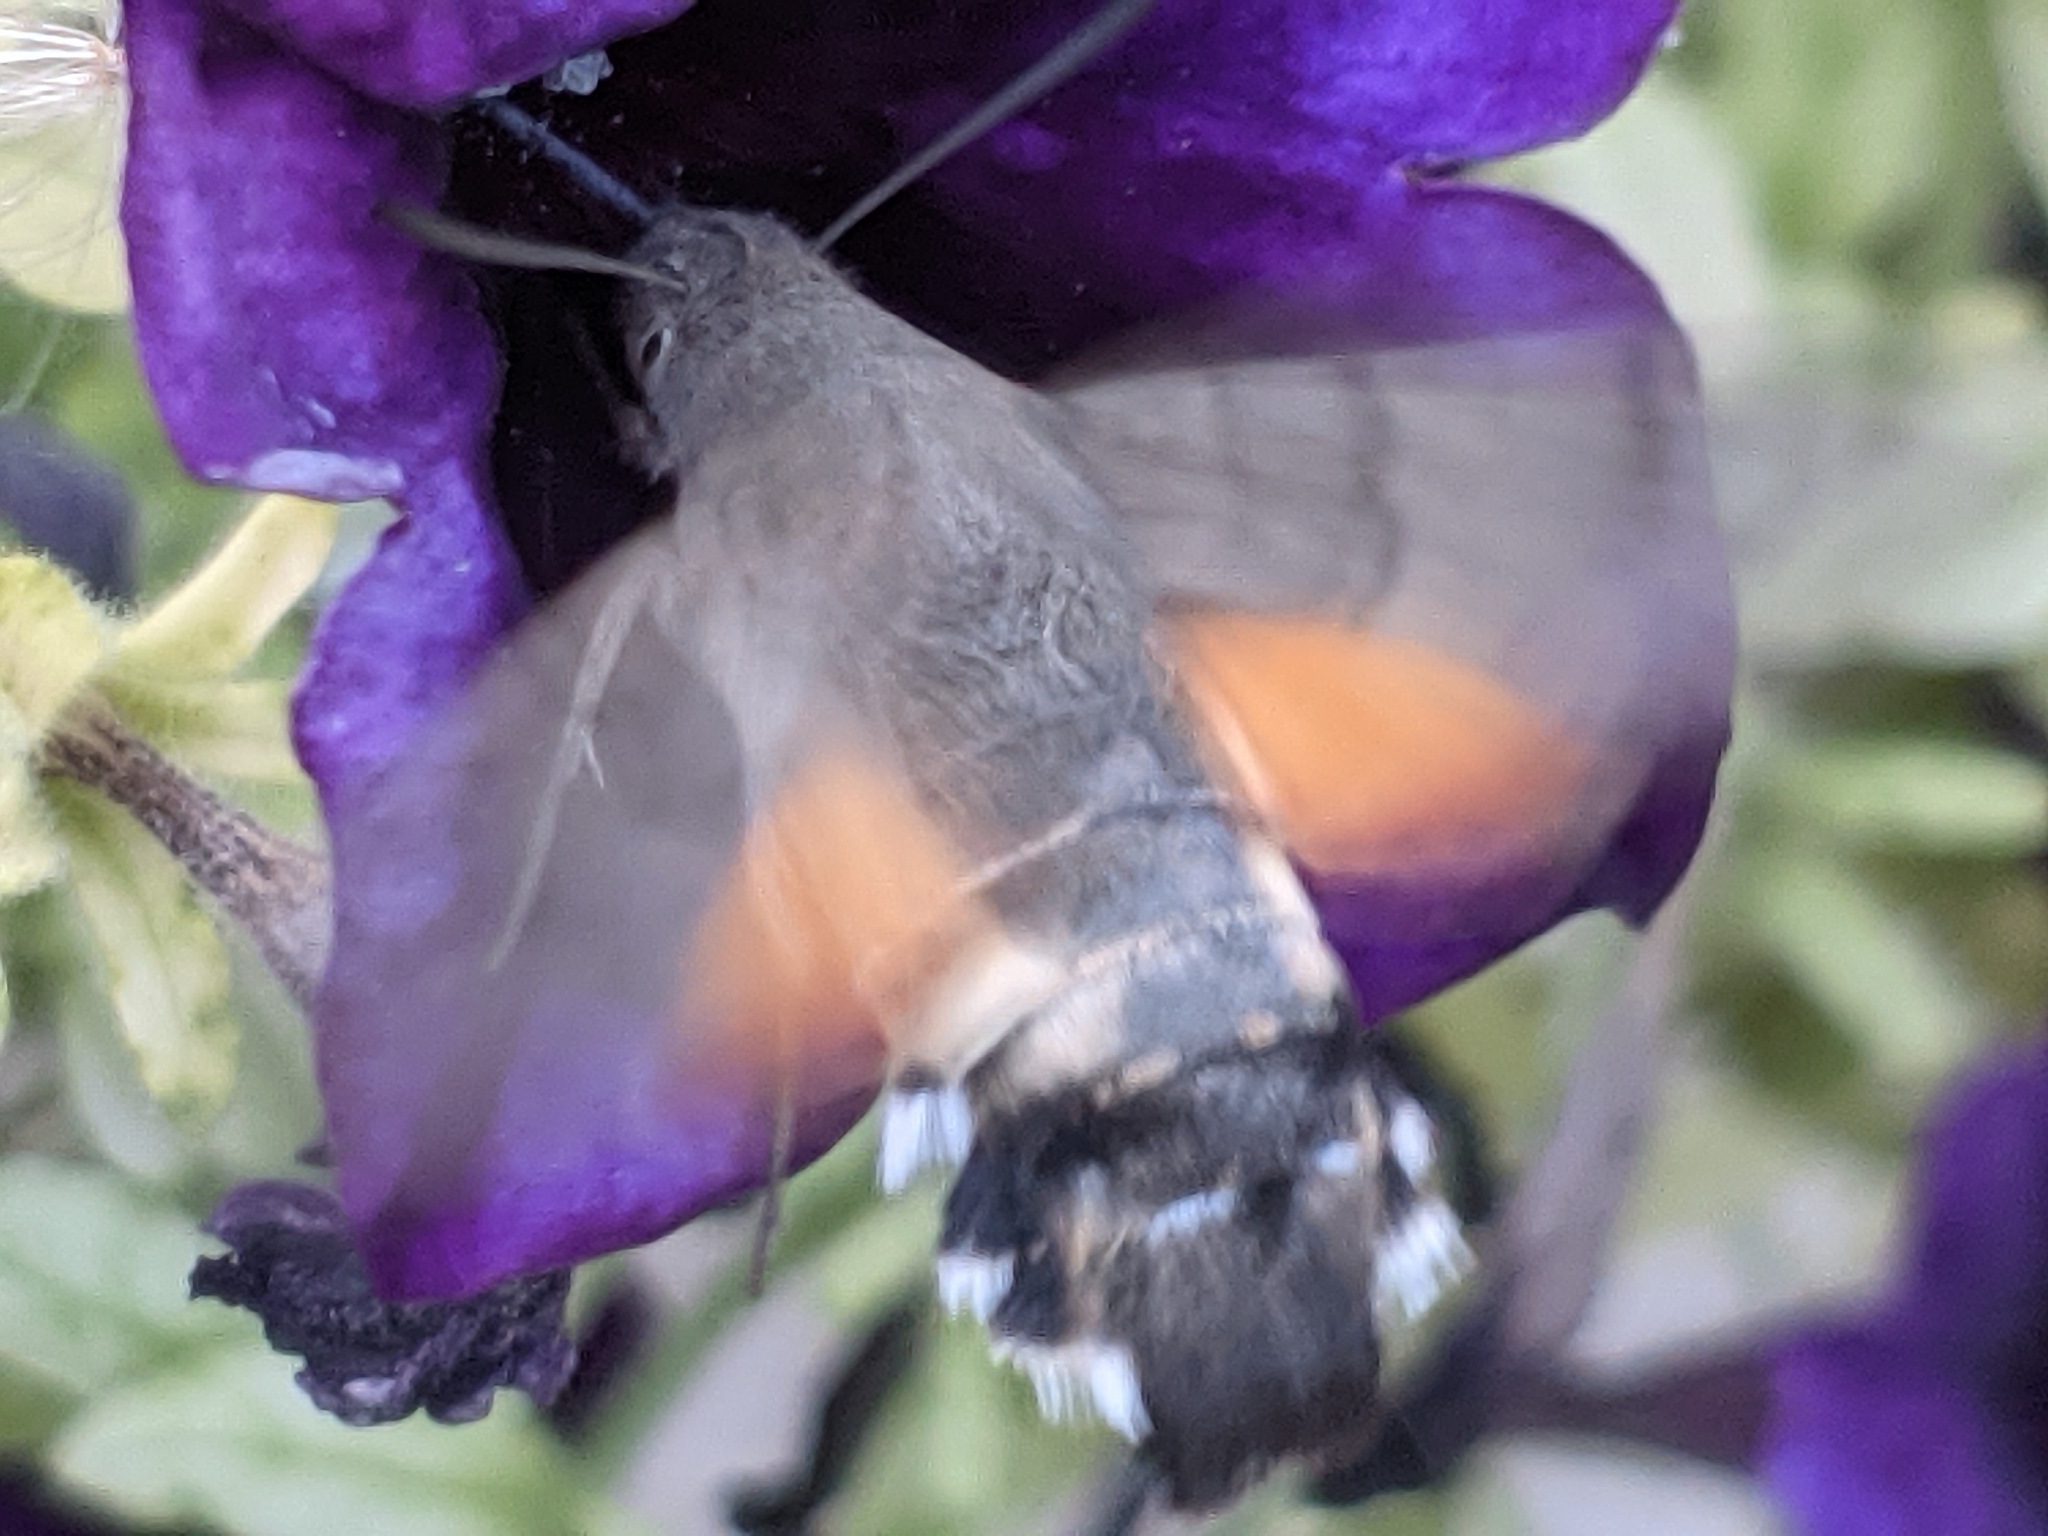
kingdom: Animalia
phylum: Arthropoda
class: Insecta
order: Lepidoptera
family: Sphingidae
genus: Macroglossum
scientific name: Macroglossum stellatarum
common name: Humming-bird hawk-moth
